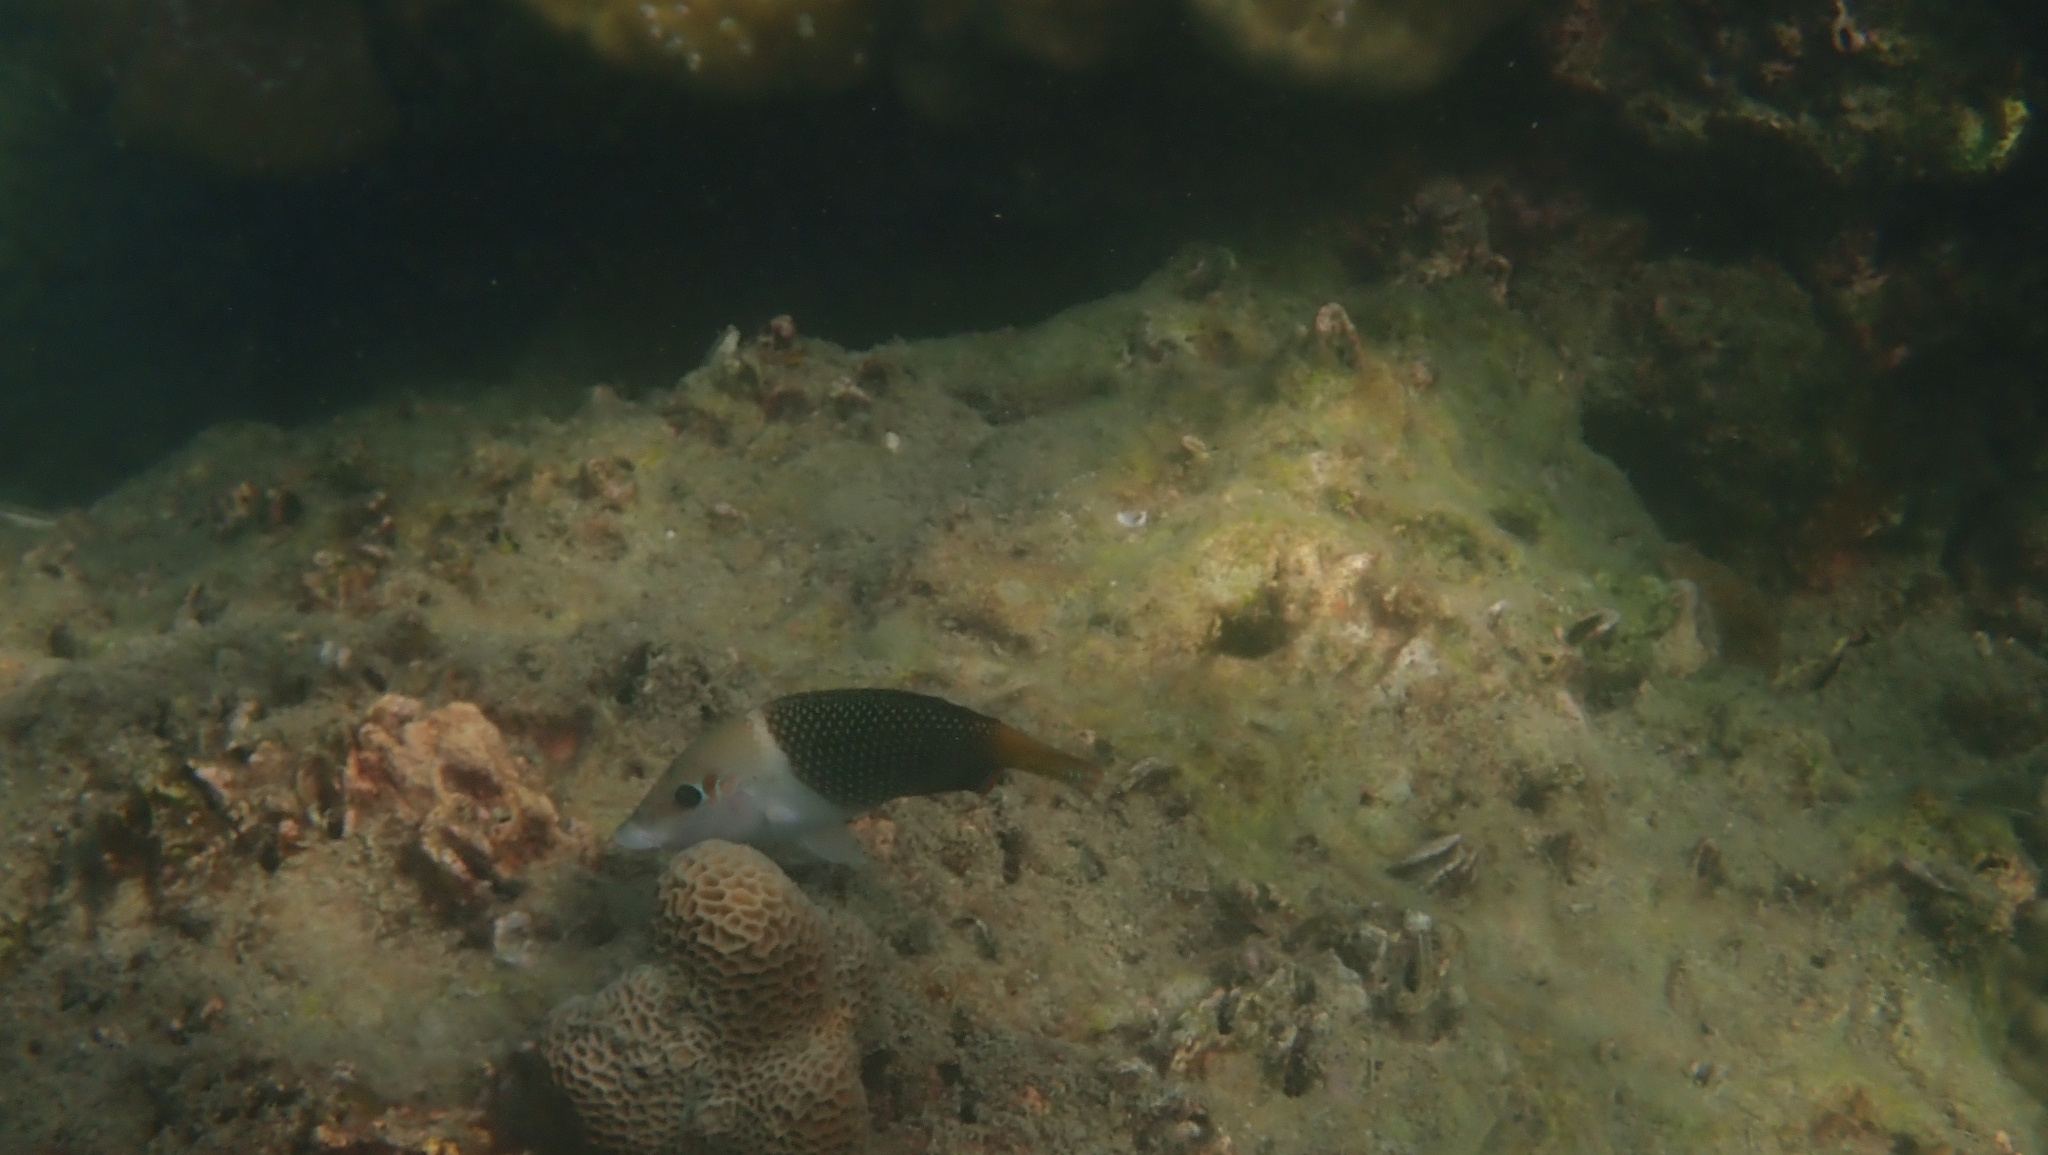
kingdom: Animalia
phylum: Chordata
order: Perciformes
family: Labridae
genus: Hemigymnus
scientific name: Hemigymnus melapterus
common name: Blackeye thicklip
